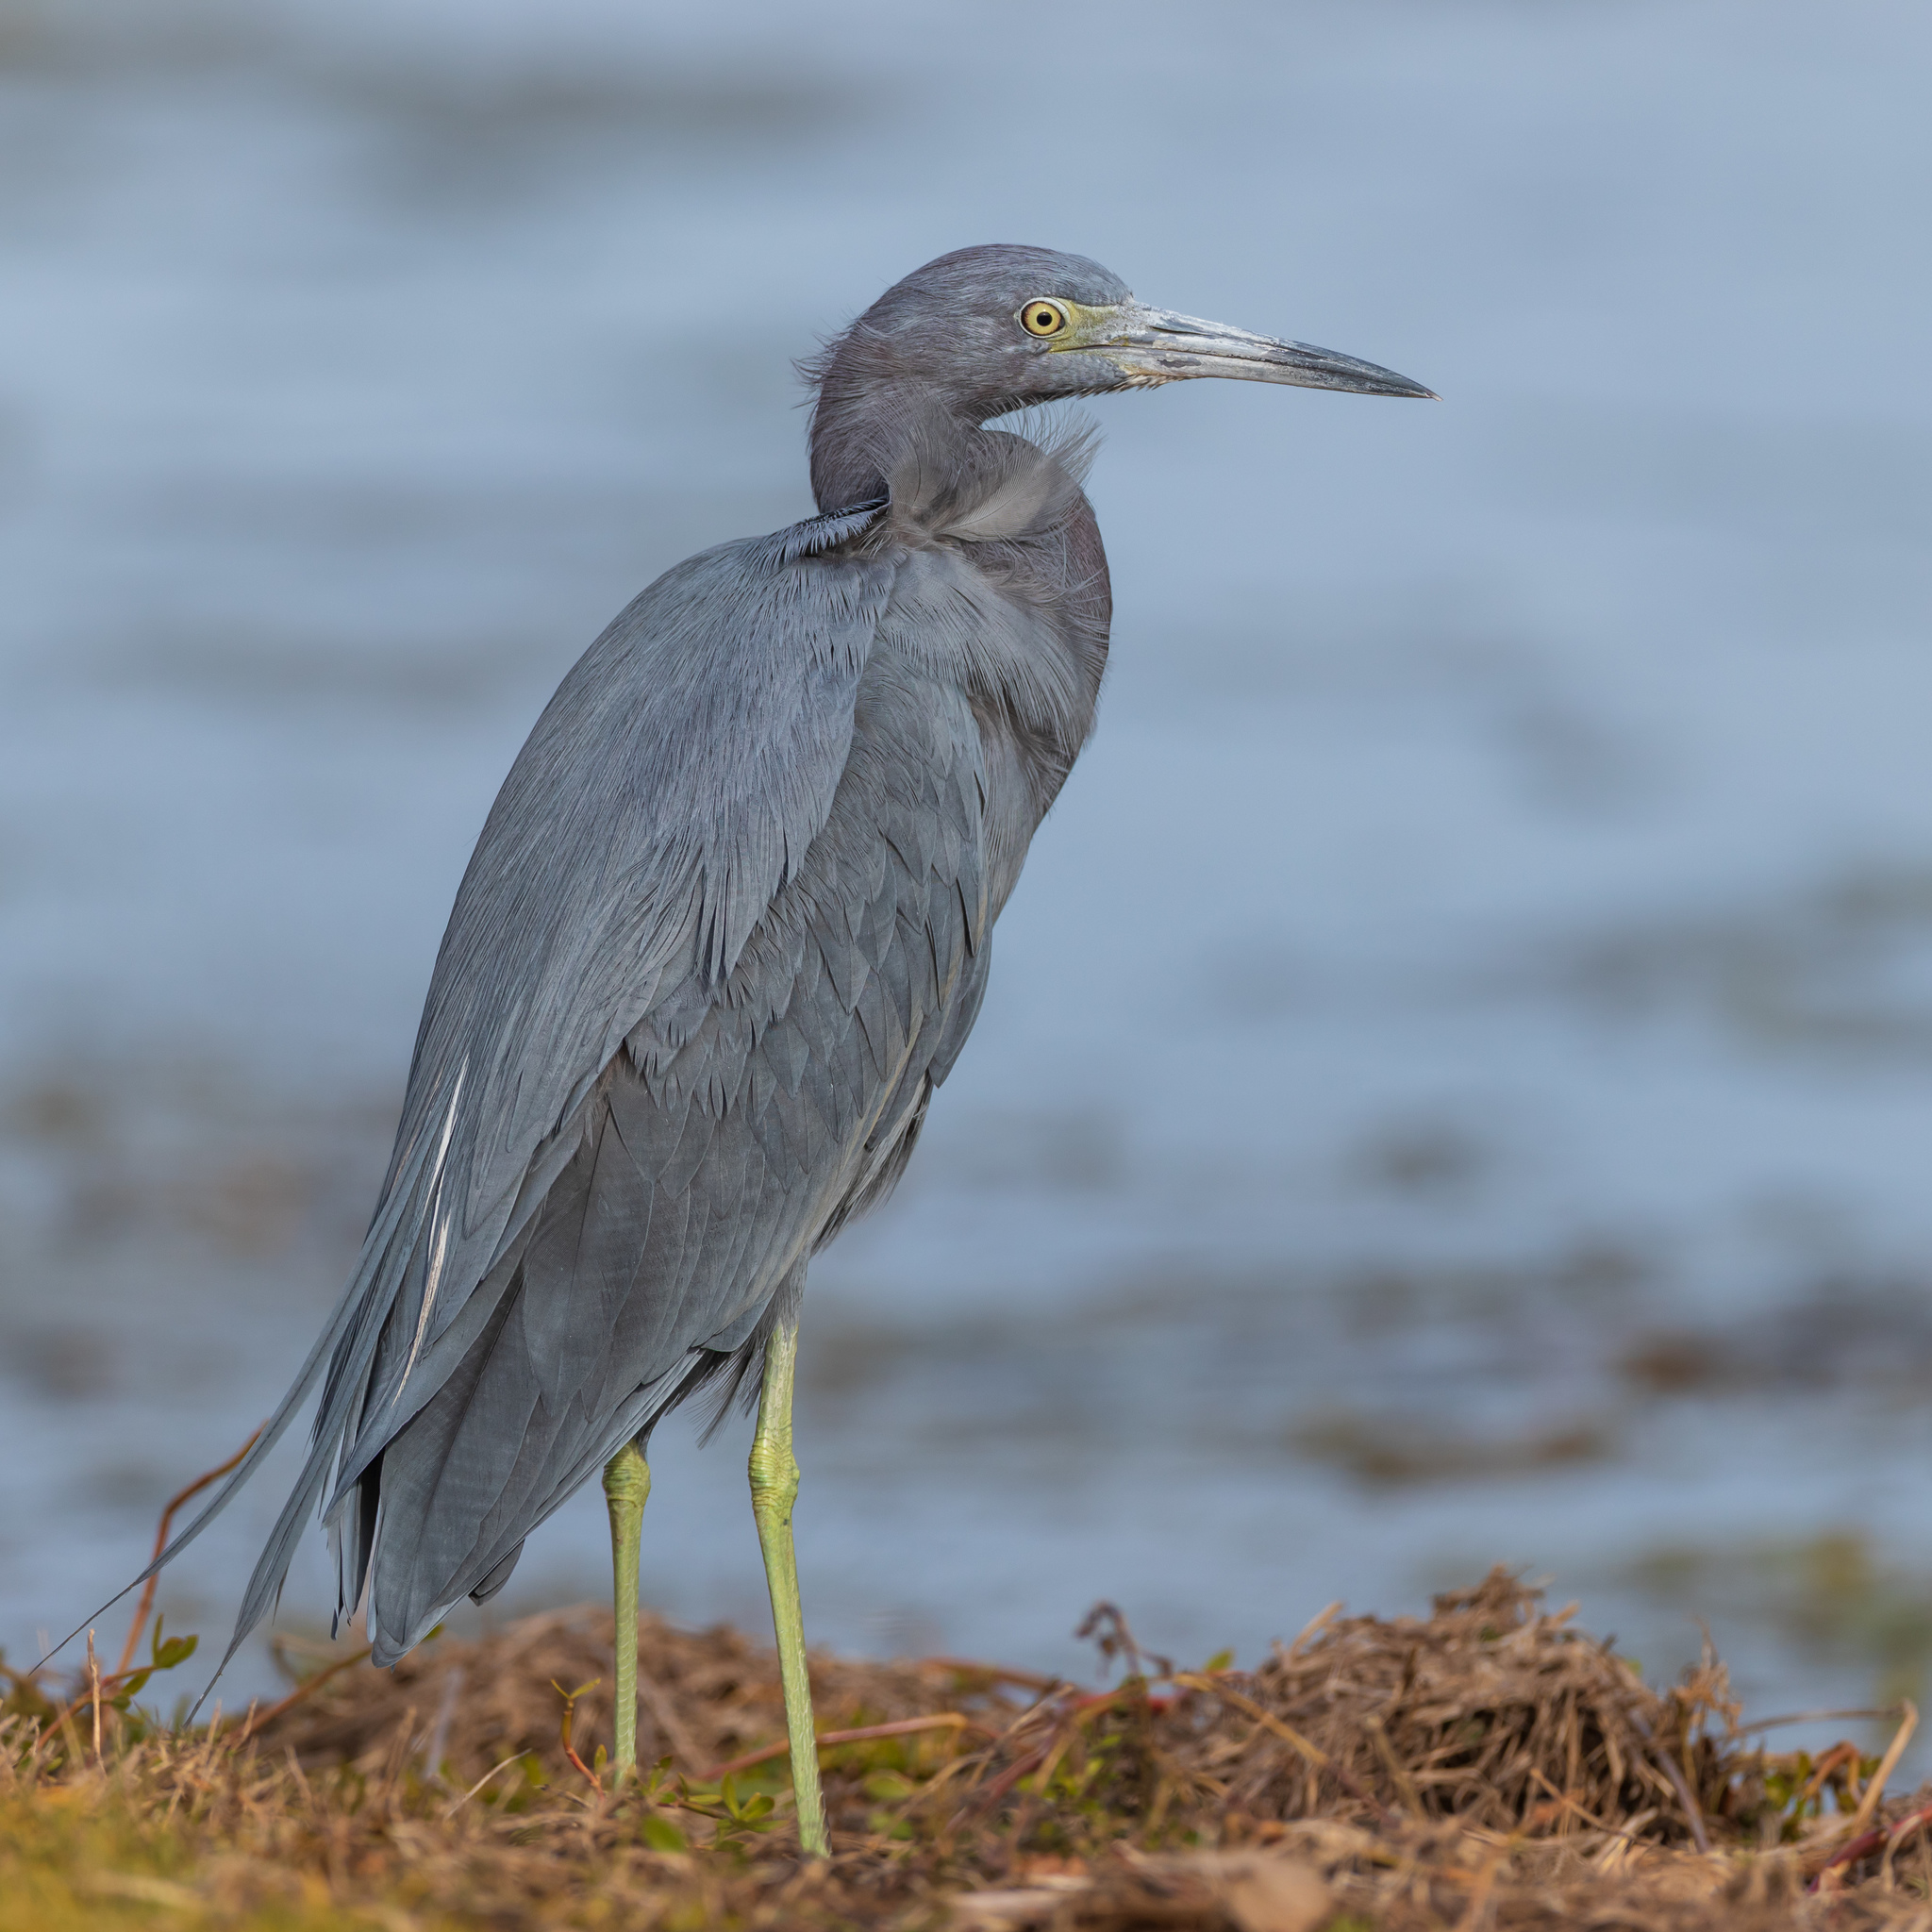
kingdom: Animalia
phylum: Chordata
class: Aves
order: Pelecaniformes
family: Ardeidae
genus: Egretta
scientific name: Egretta caerulea
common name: Little blue heron
